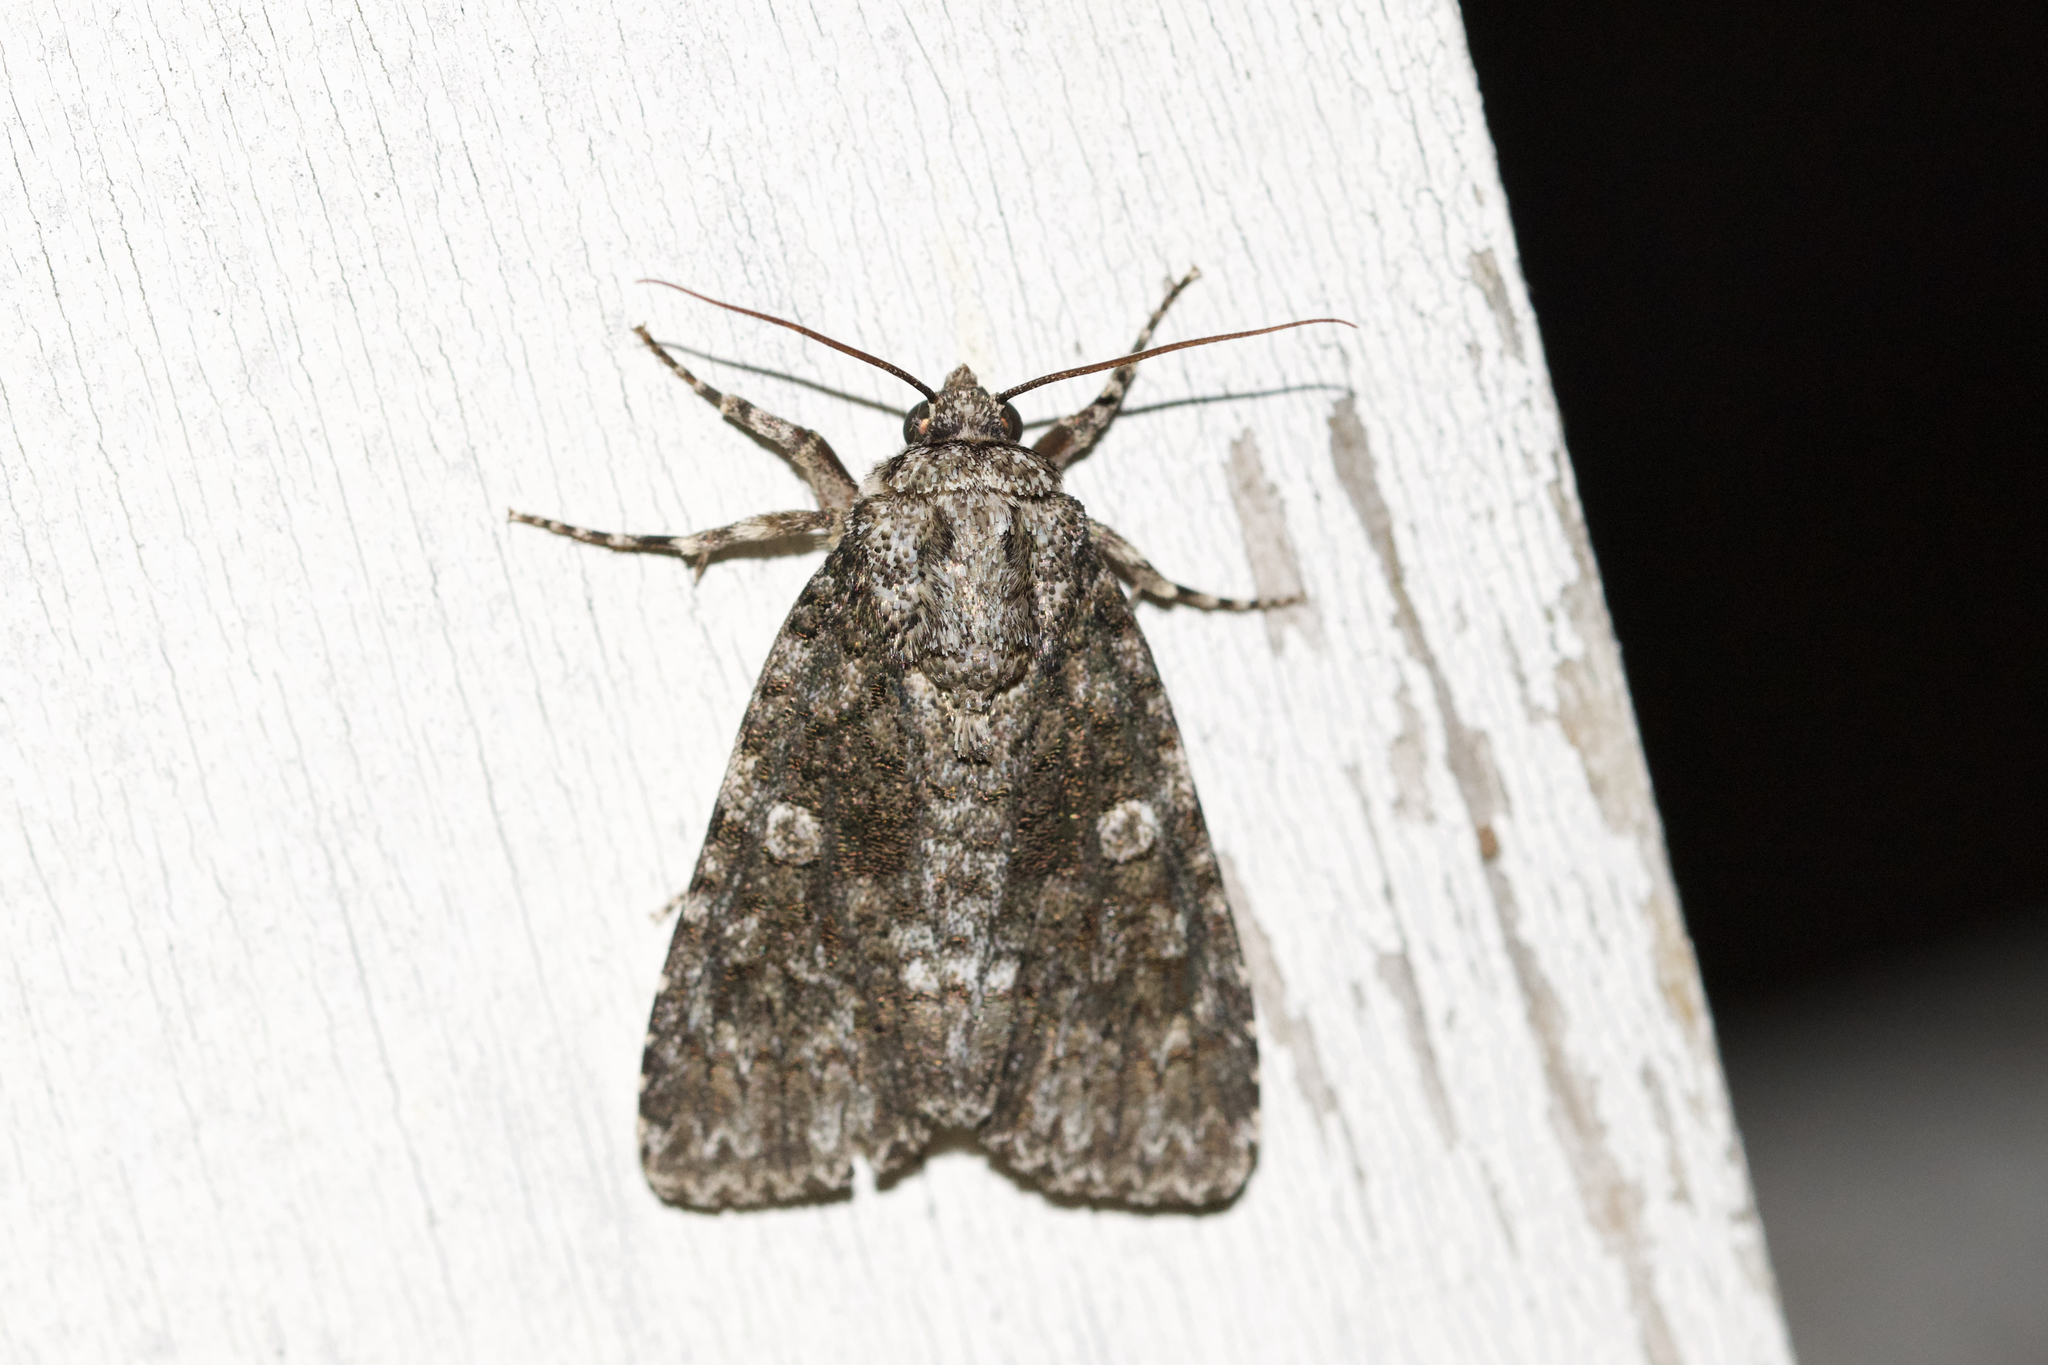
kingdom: Animalia
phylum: Arthropoda
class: Insecta
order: Lepidoptera
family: Noctuidae
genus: Acronicta
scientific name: Acronicta afflicta
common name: Afflicted dagger moth
